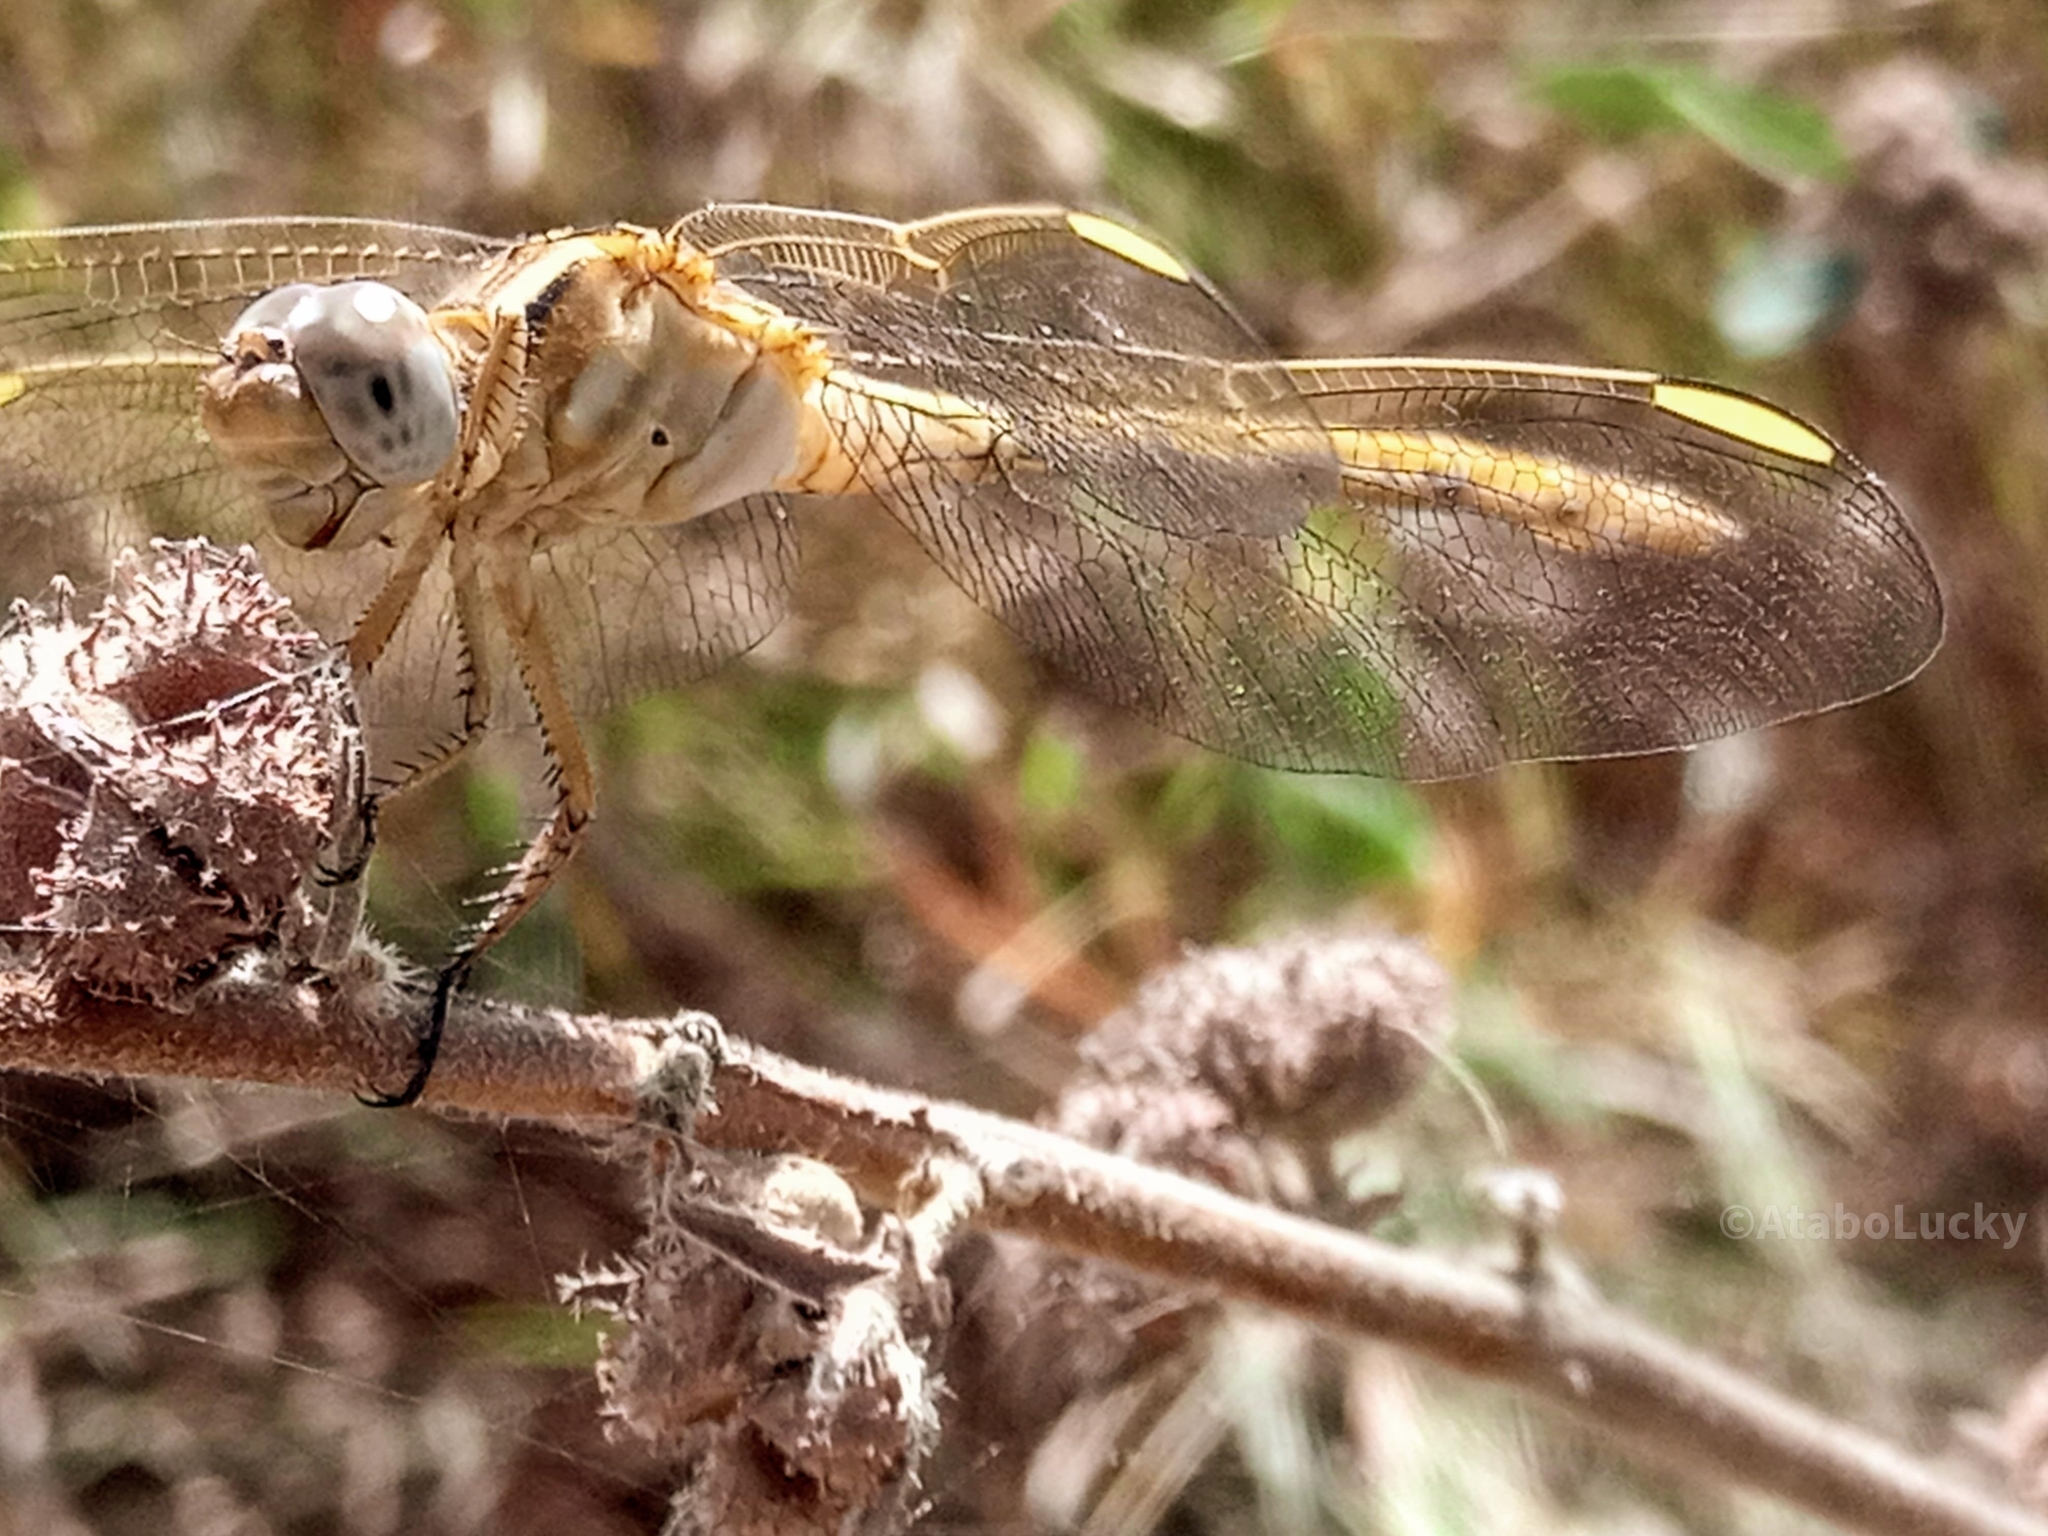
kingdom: Animalia
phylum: Arthropoda
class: Insecta
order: Odonata
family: Libellulidae
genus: Orthetrum
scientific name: Orthetrum angustiventre
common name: Many-celled skimmer
